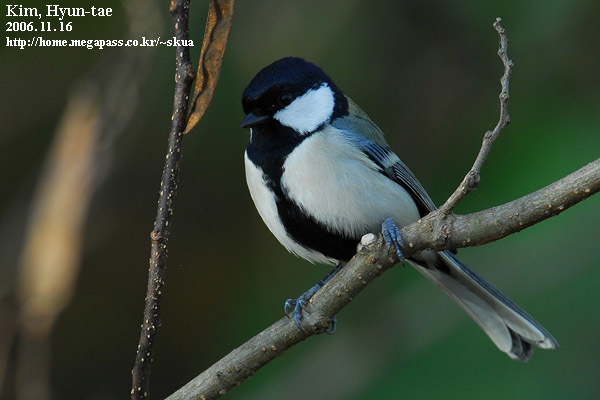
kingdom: Animalia
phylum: Chordata
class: Aves
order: Passeriformes
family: Paridae
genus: Parus
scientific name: Parus minor
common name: Japanese tit
